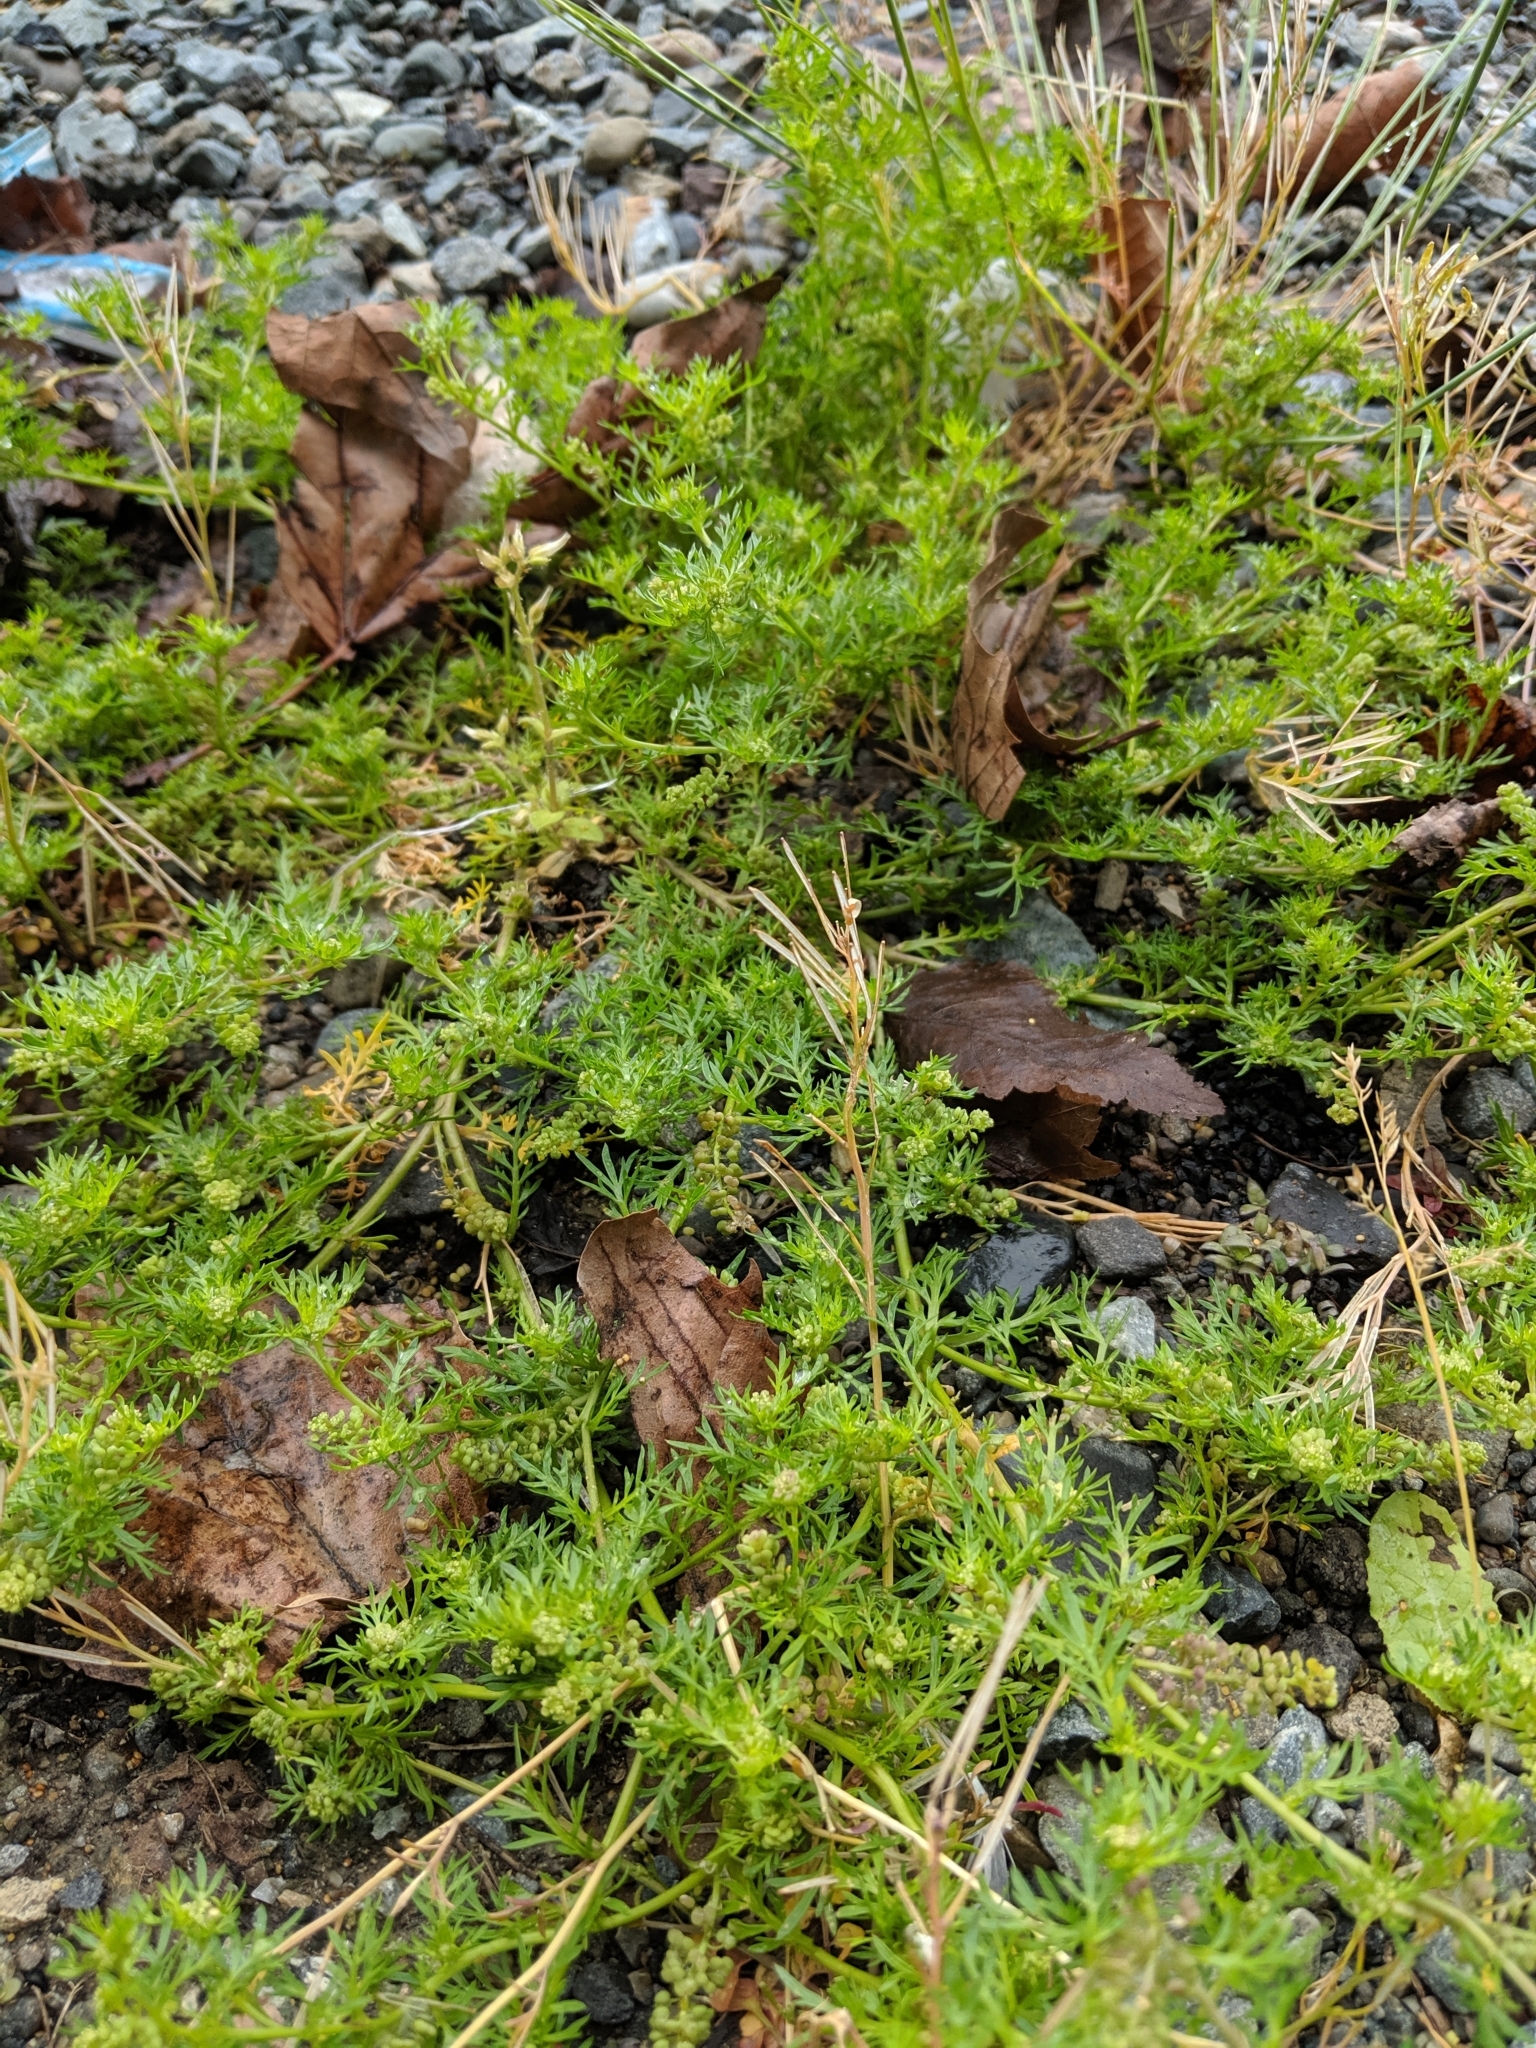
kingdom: Plantae
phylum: Tracheophyta
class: Magnoliopsida
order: Brassicales
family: Brassicaceae
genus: Lepidium
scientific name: Lepidium didymum
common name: Lesser swinecress
